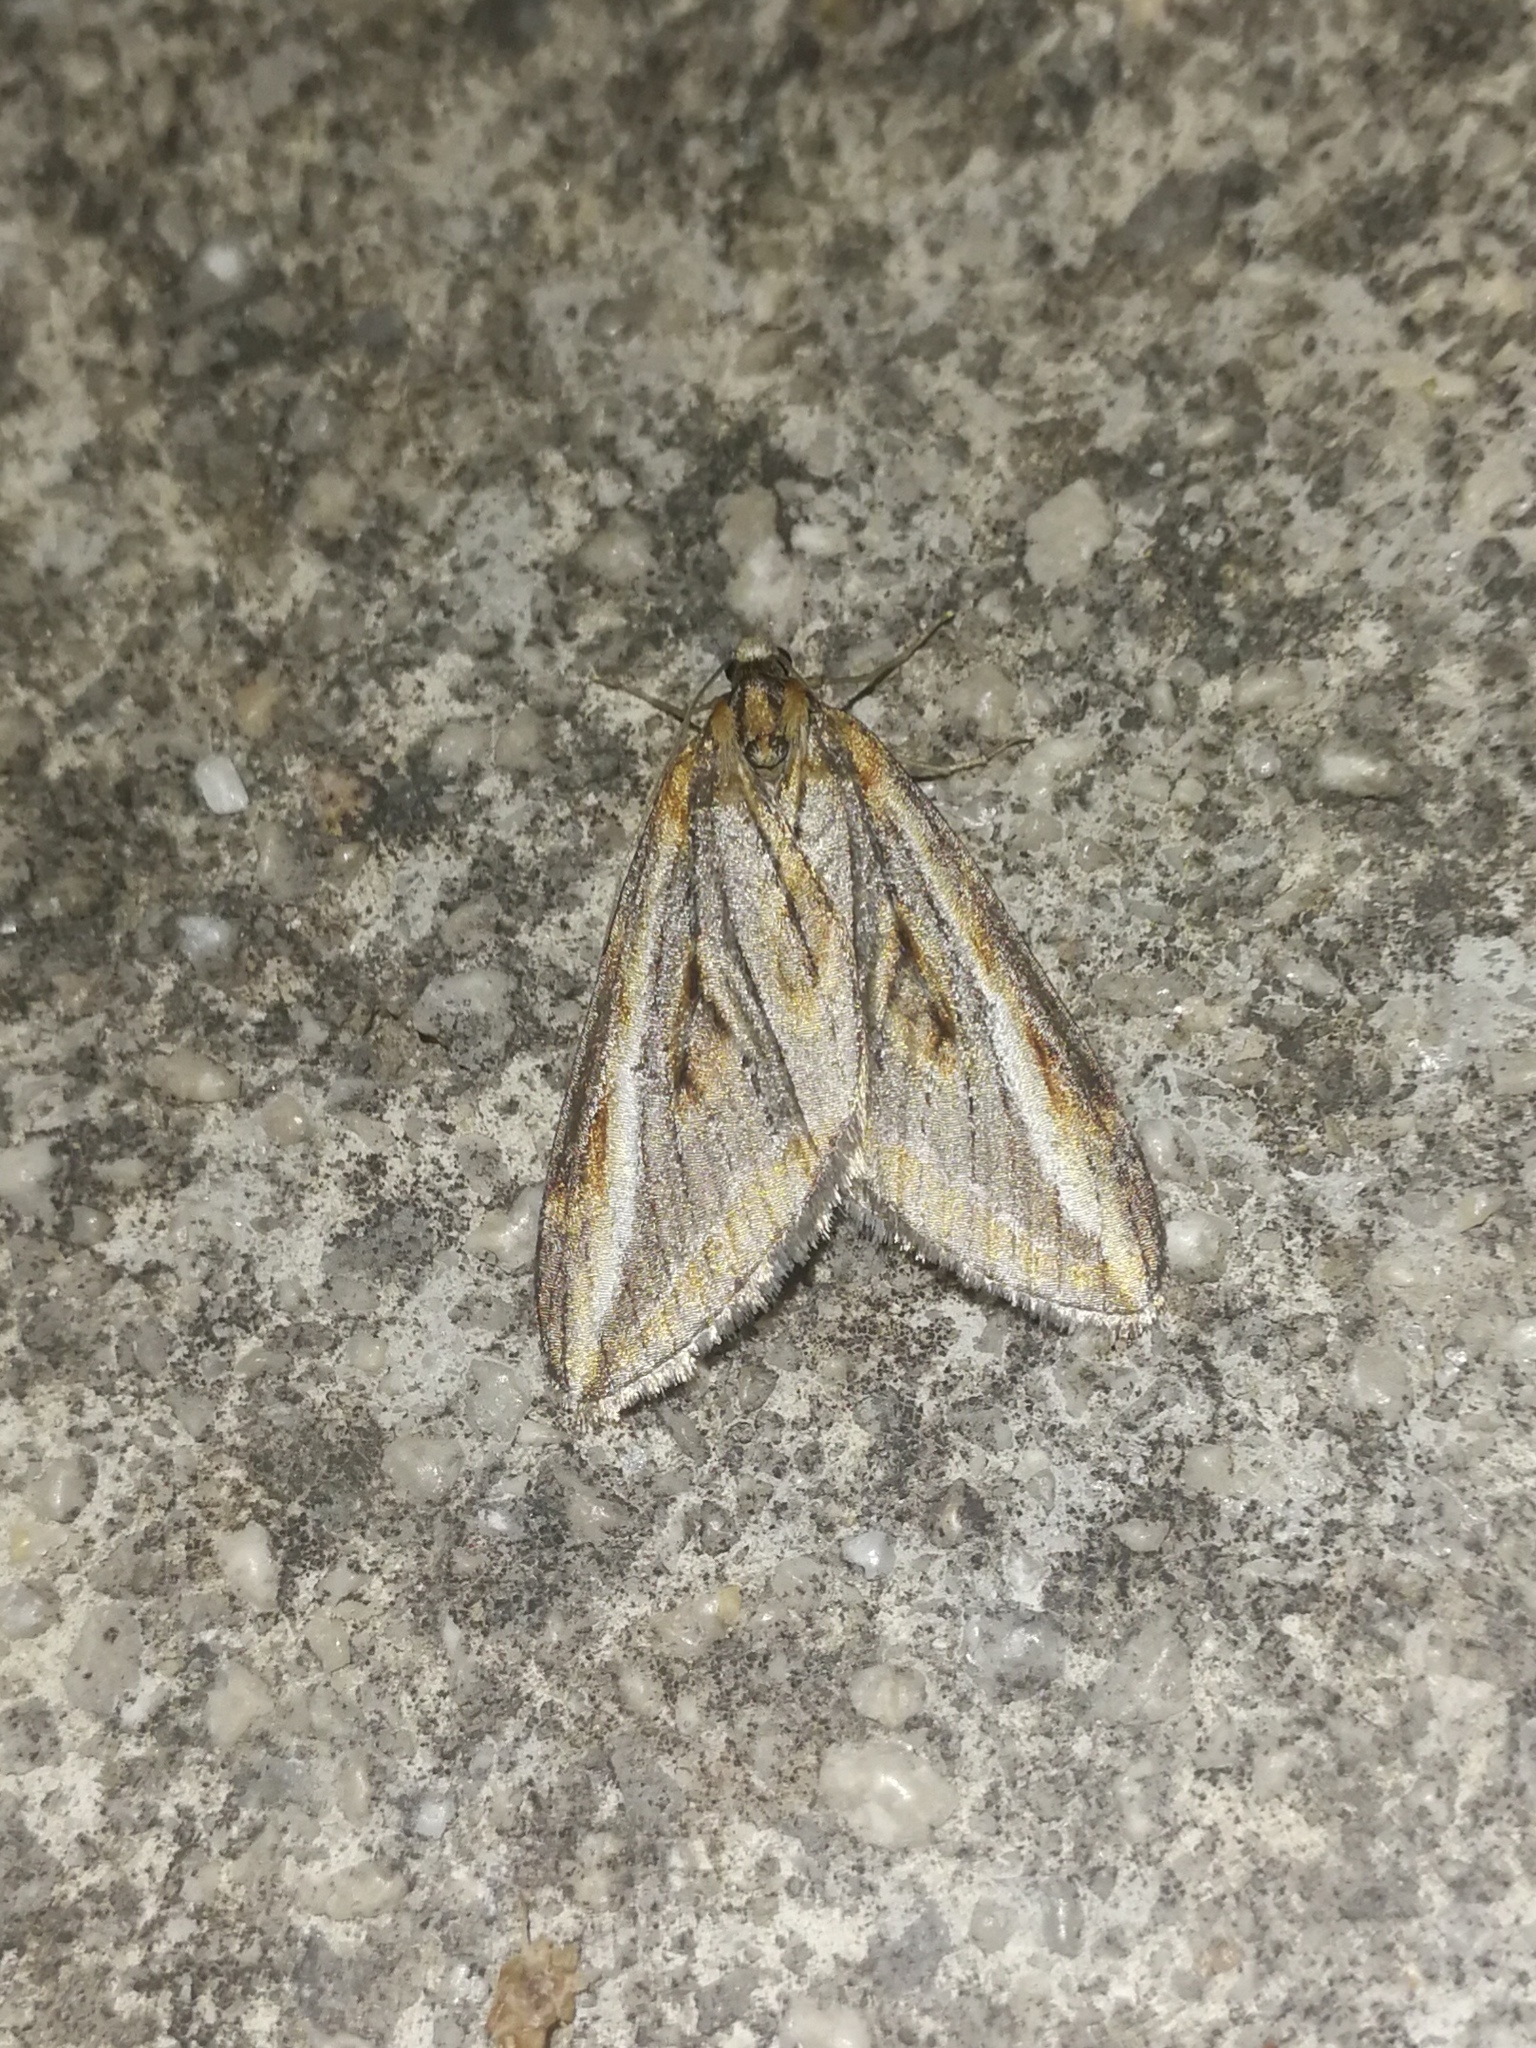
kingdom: Animalia
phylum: Arthropoda
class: Insecta
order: Lepidoptera
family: Geometridae
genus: Chesias
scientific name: Chesias legatella
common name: Streak
